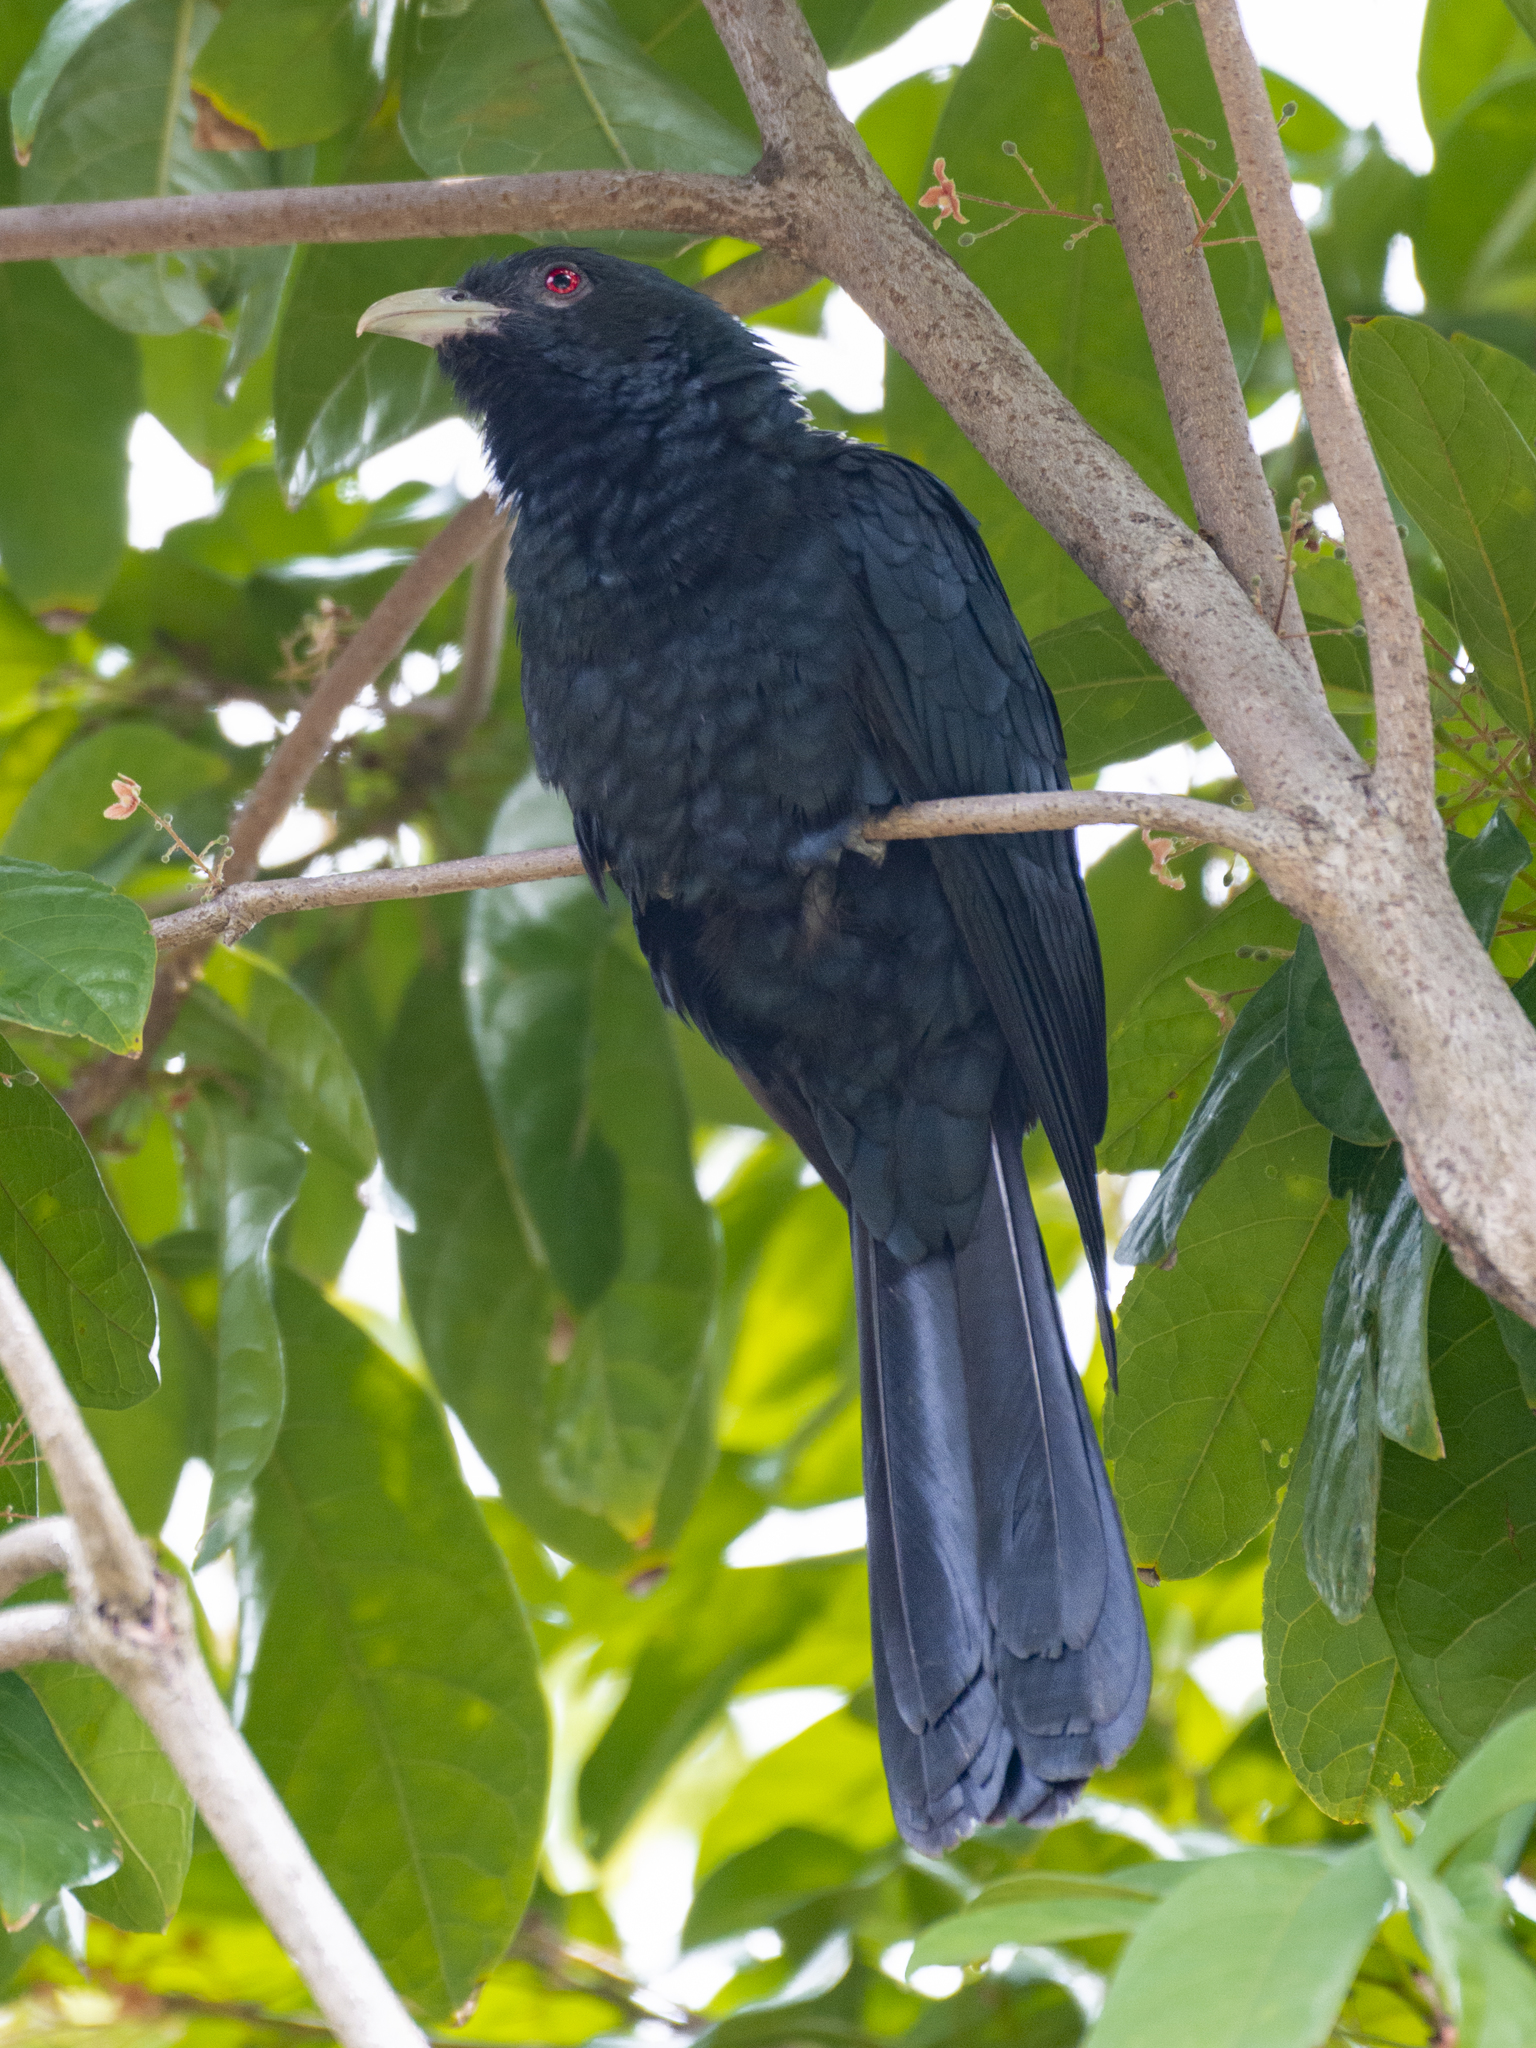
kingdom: Animalia
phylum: Chordata
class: Aves
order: Cuculiformes
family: Cuculidae
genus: Eudynamys
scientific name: Eudynamys scolopaceus
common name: Asian koel
